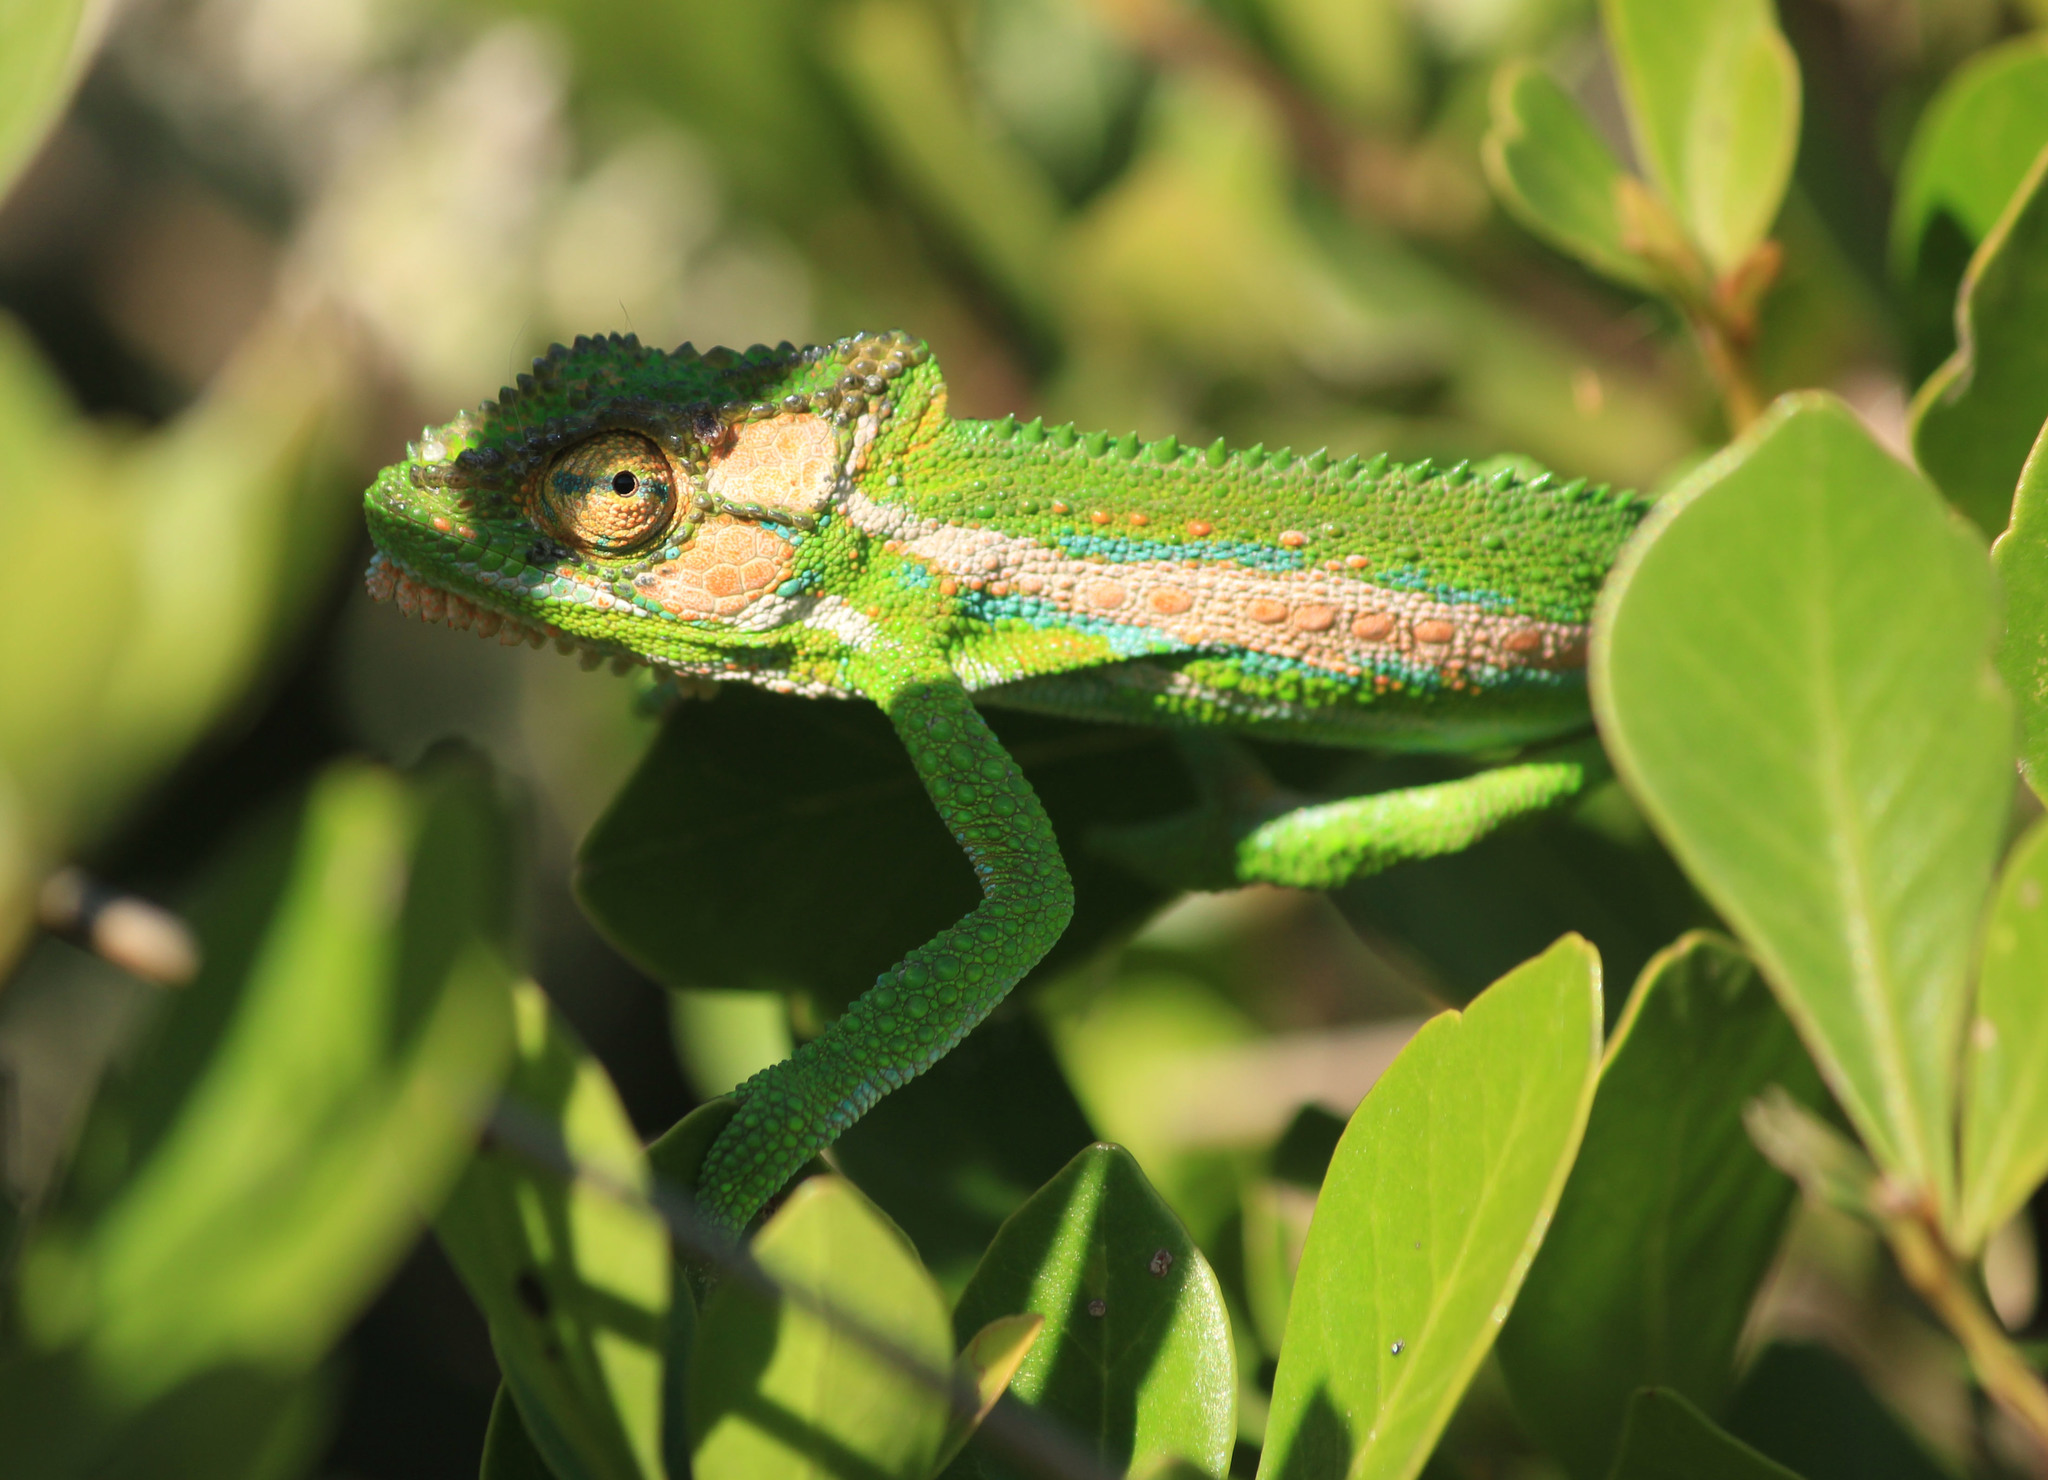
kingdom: Animalia
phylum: Chordata
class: Squamata
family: Chamaeleonidae
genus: Bradypodion
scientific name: Bradypodion pumilum
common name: Cape dwarf chameleon
